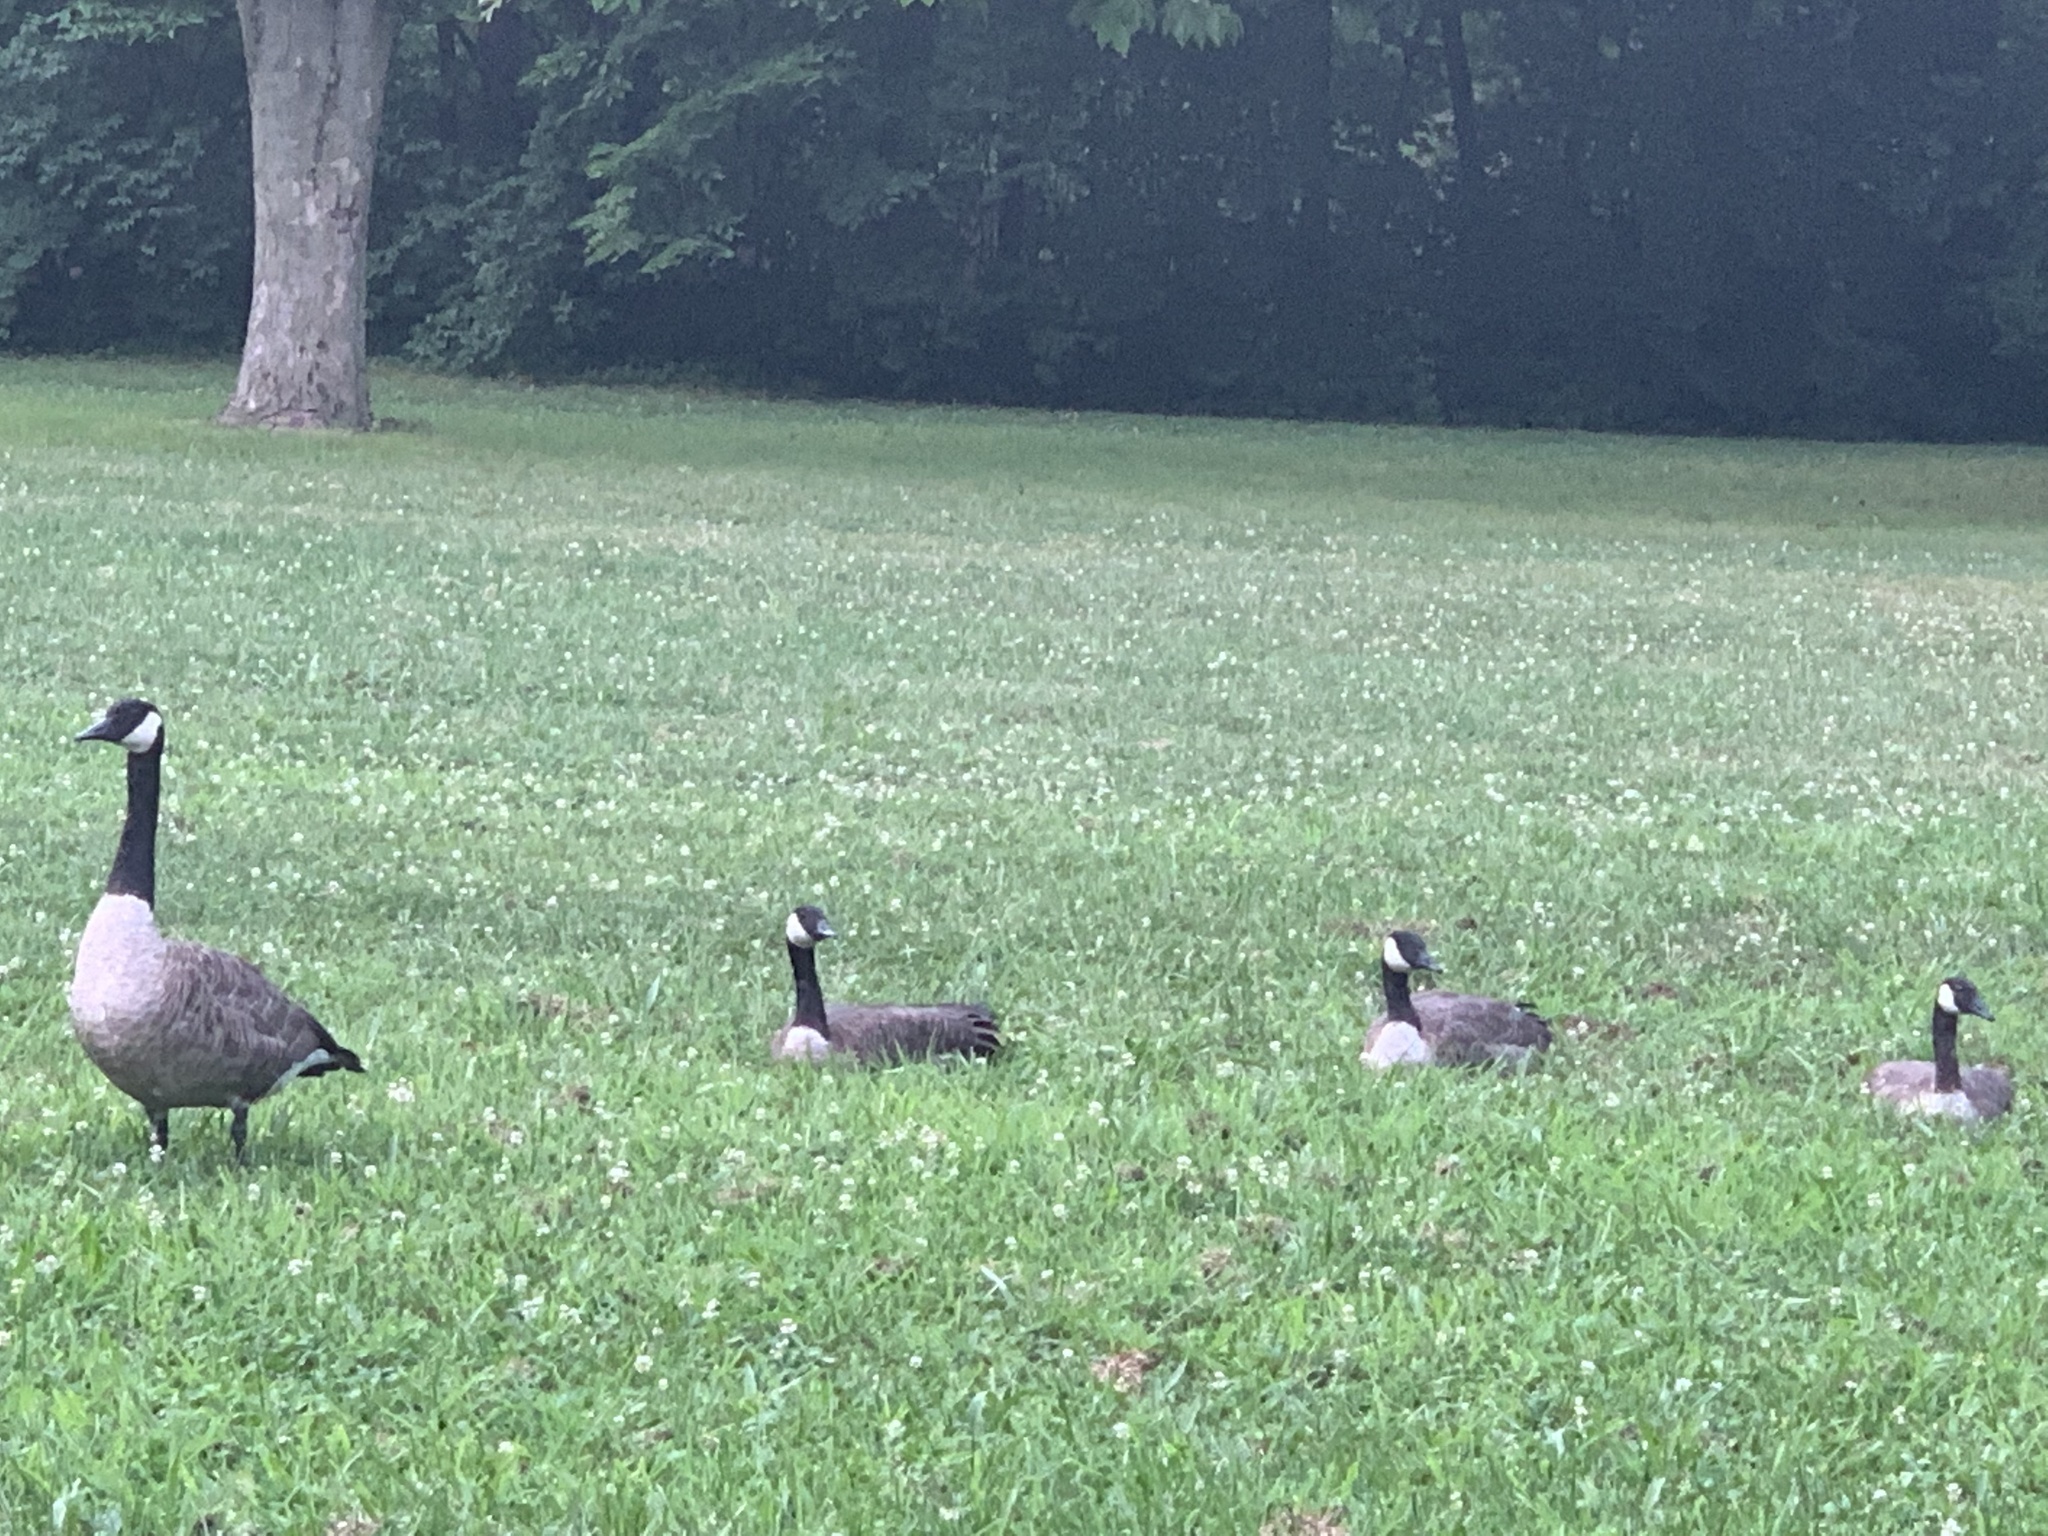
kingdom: Animalia
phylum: Chordata
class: Aves
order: Anseriformes
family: Anatidae
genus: Branta
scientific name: Branta canadensis
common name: Canada goose
